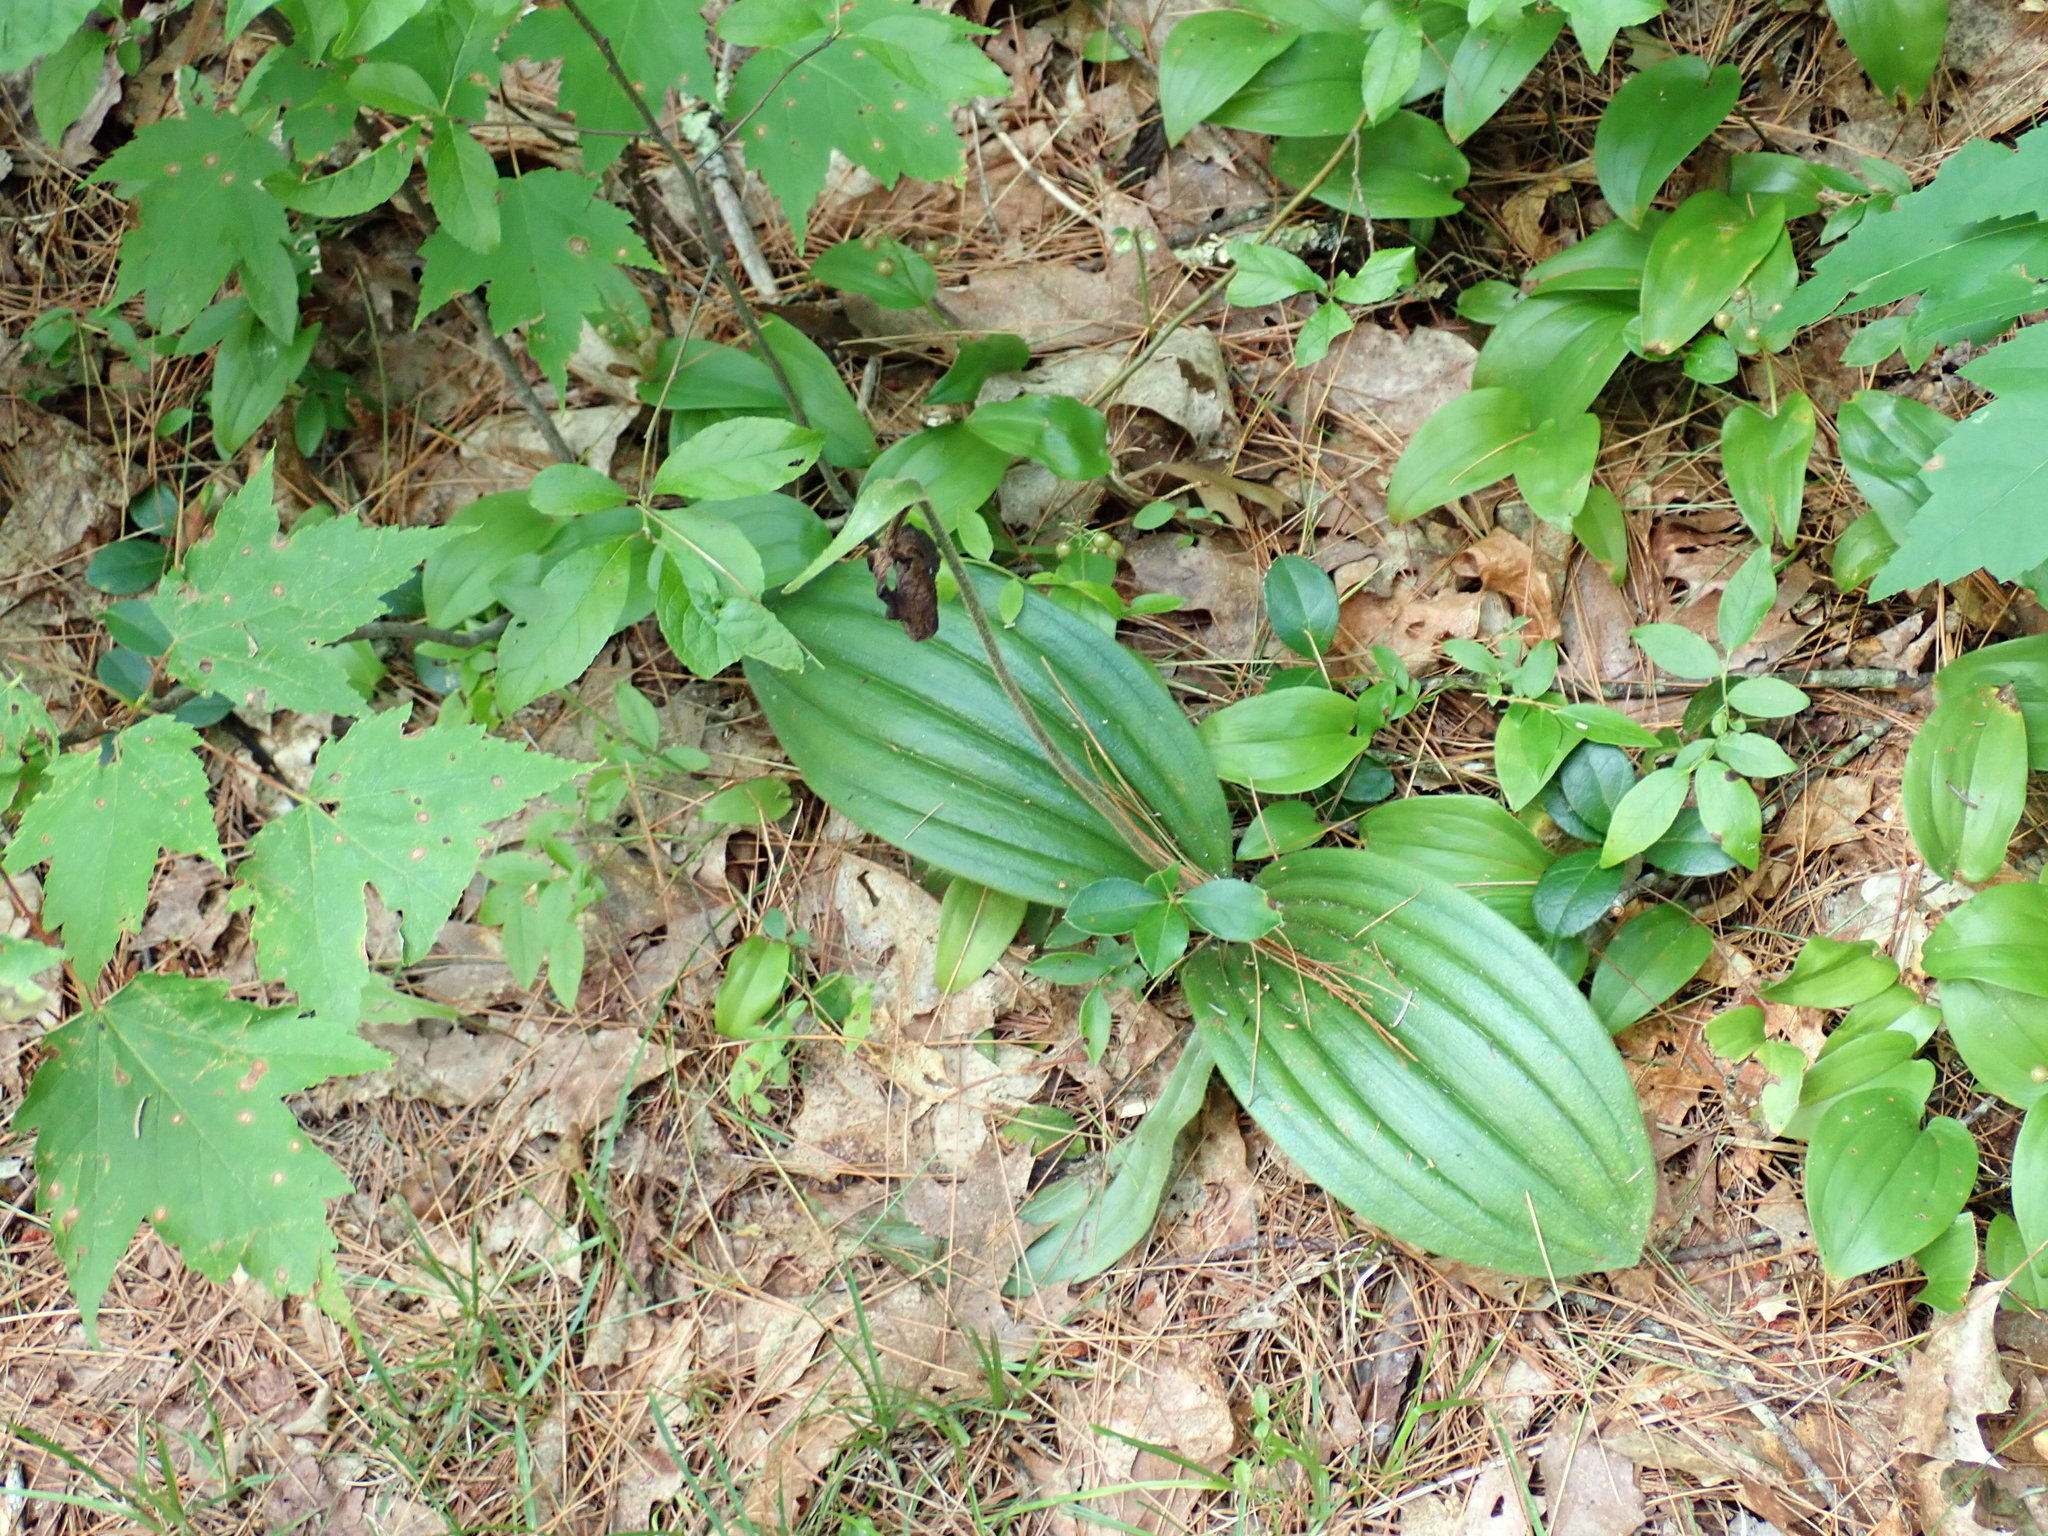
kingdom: Plantae
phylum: Tracheophyta
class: Liliopsida
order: Asparagales
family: Orchidaceae
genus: Cypripedium
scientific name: Cypripedium acaule
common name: Pink lady's-slipper
